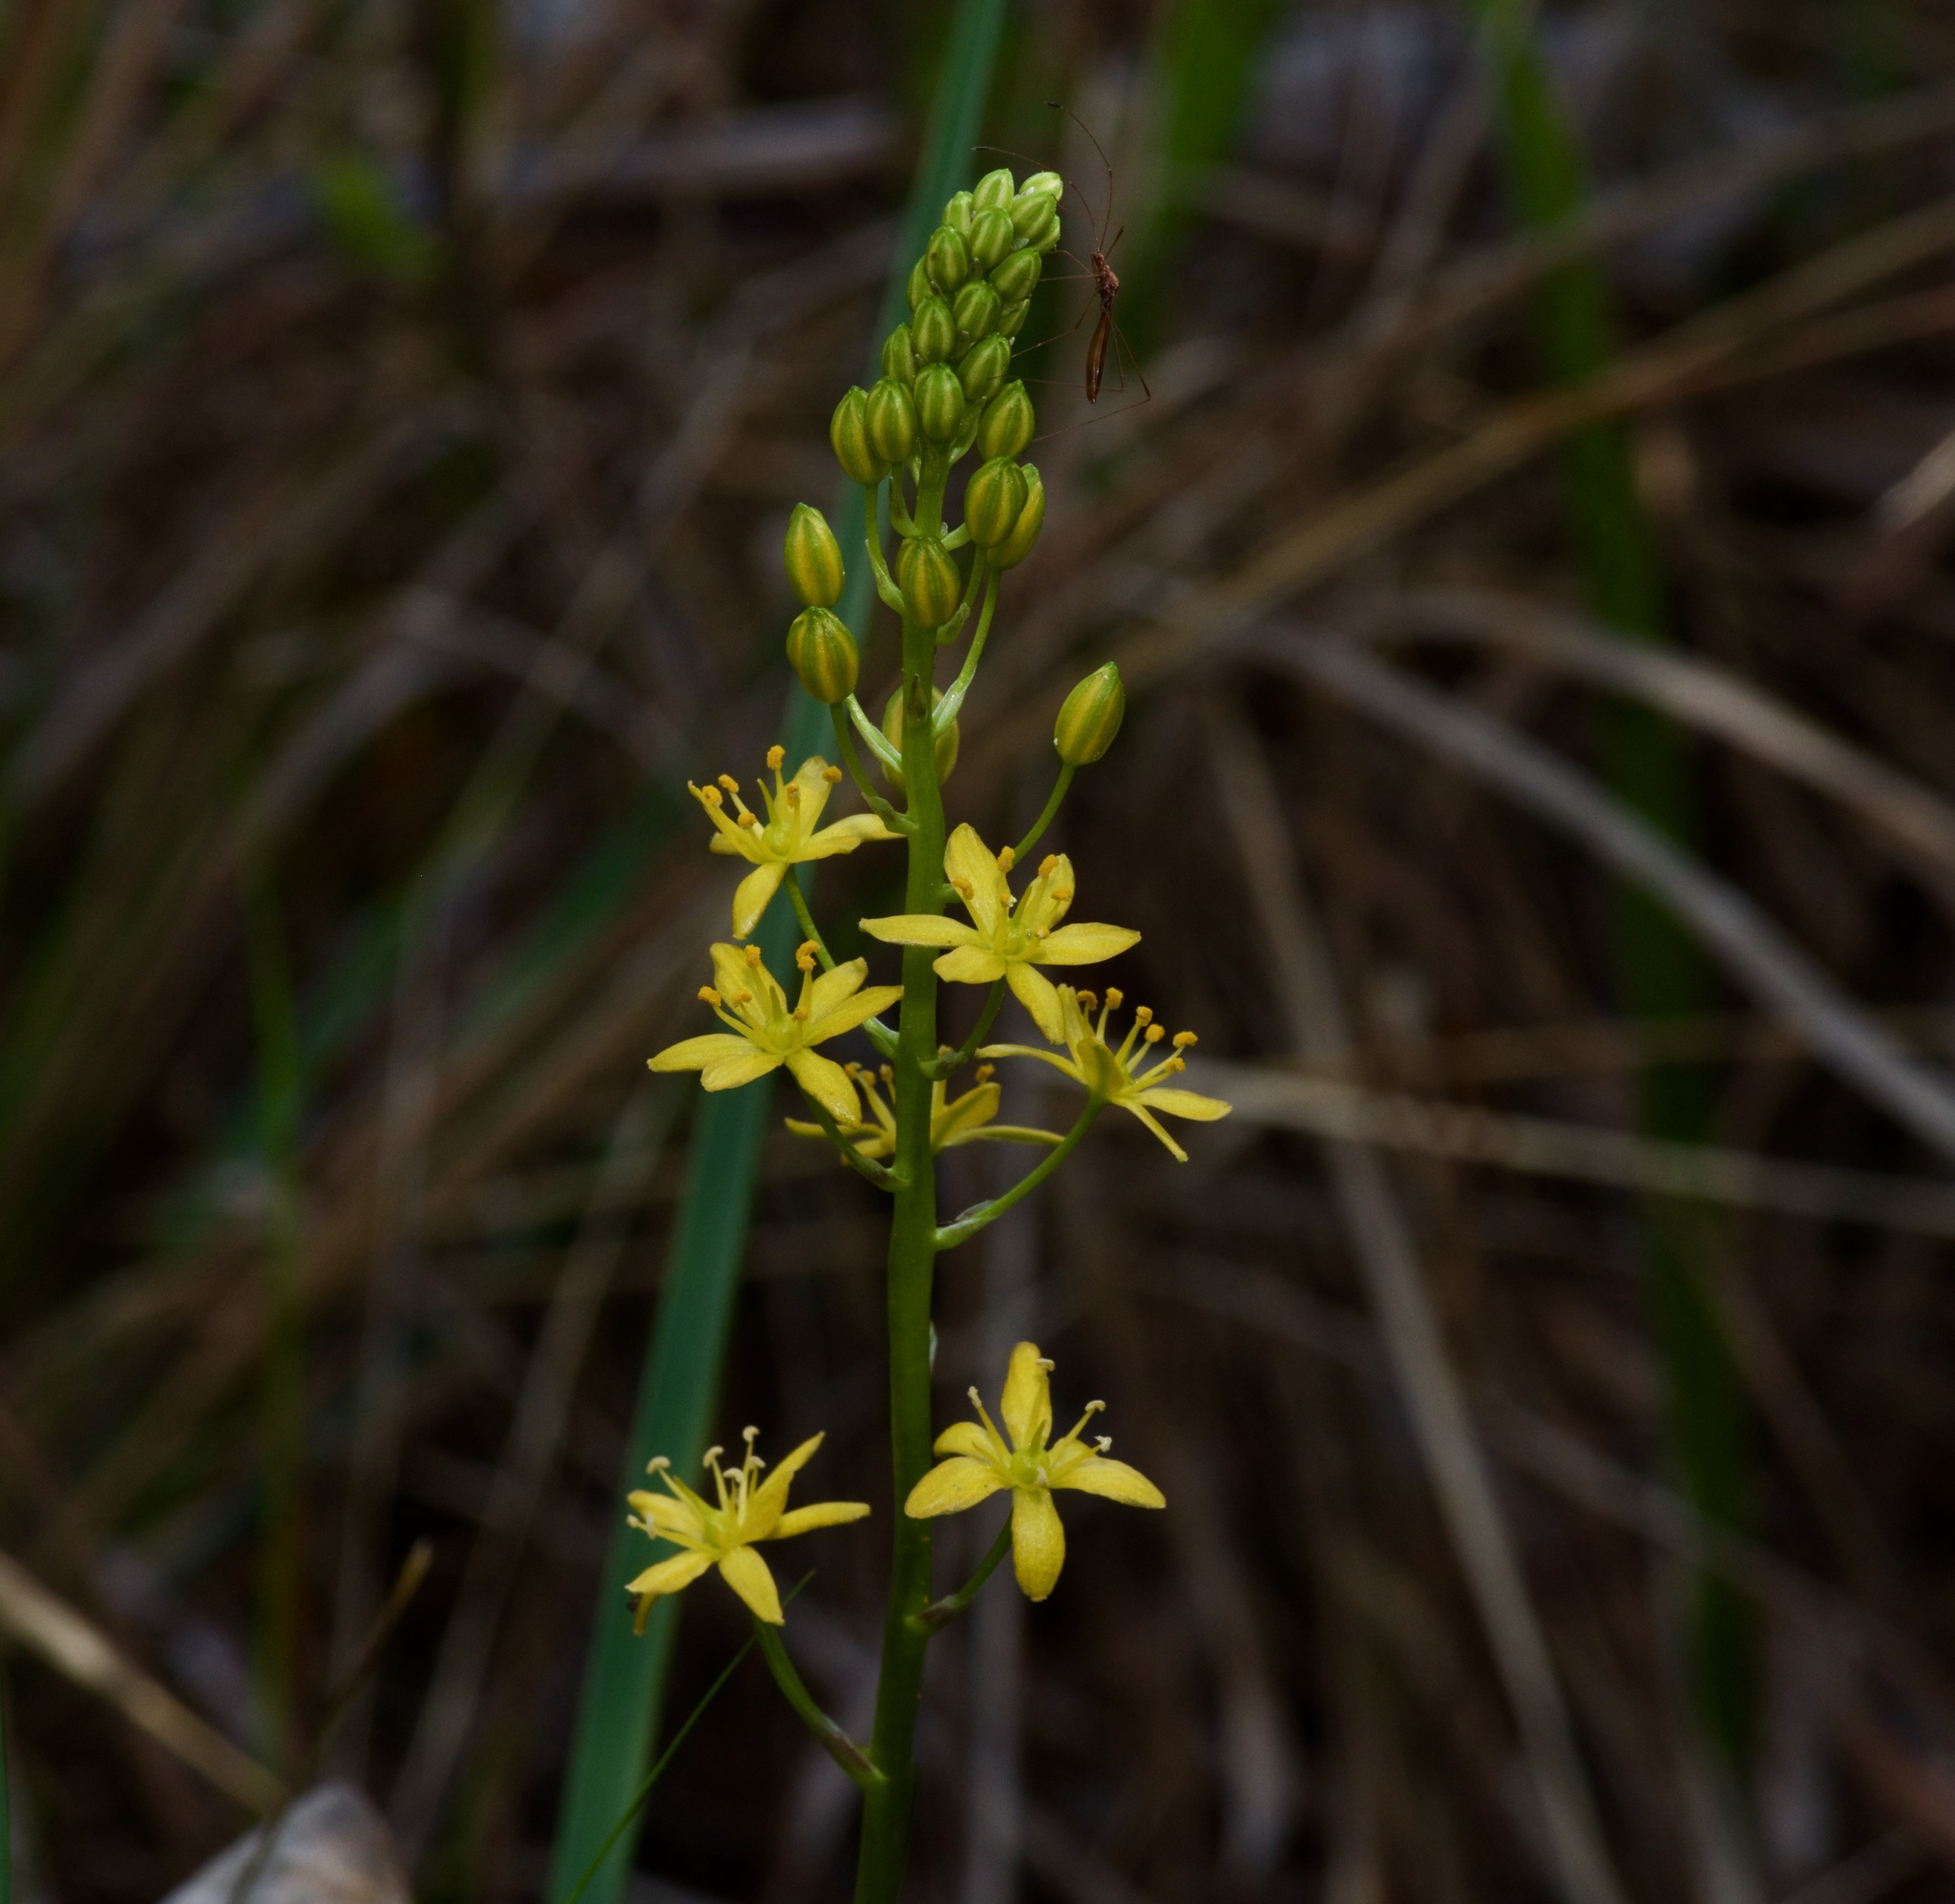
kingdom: Plantae
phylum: Tracheophyta
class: Liliopsida
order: Asparagales
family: Asparagaceae
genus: Schoenolirion
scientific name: Schoenolirion croceum
